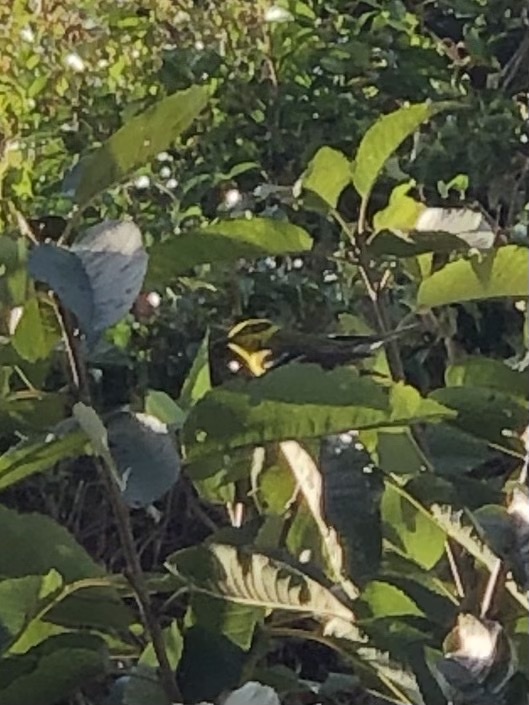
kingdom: Animalia
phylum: Chordata
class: Aves
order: Passeriformes
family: Parulidae
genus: Setophaga
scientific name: Setophaga townsendi
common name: Townsend's warbler
